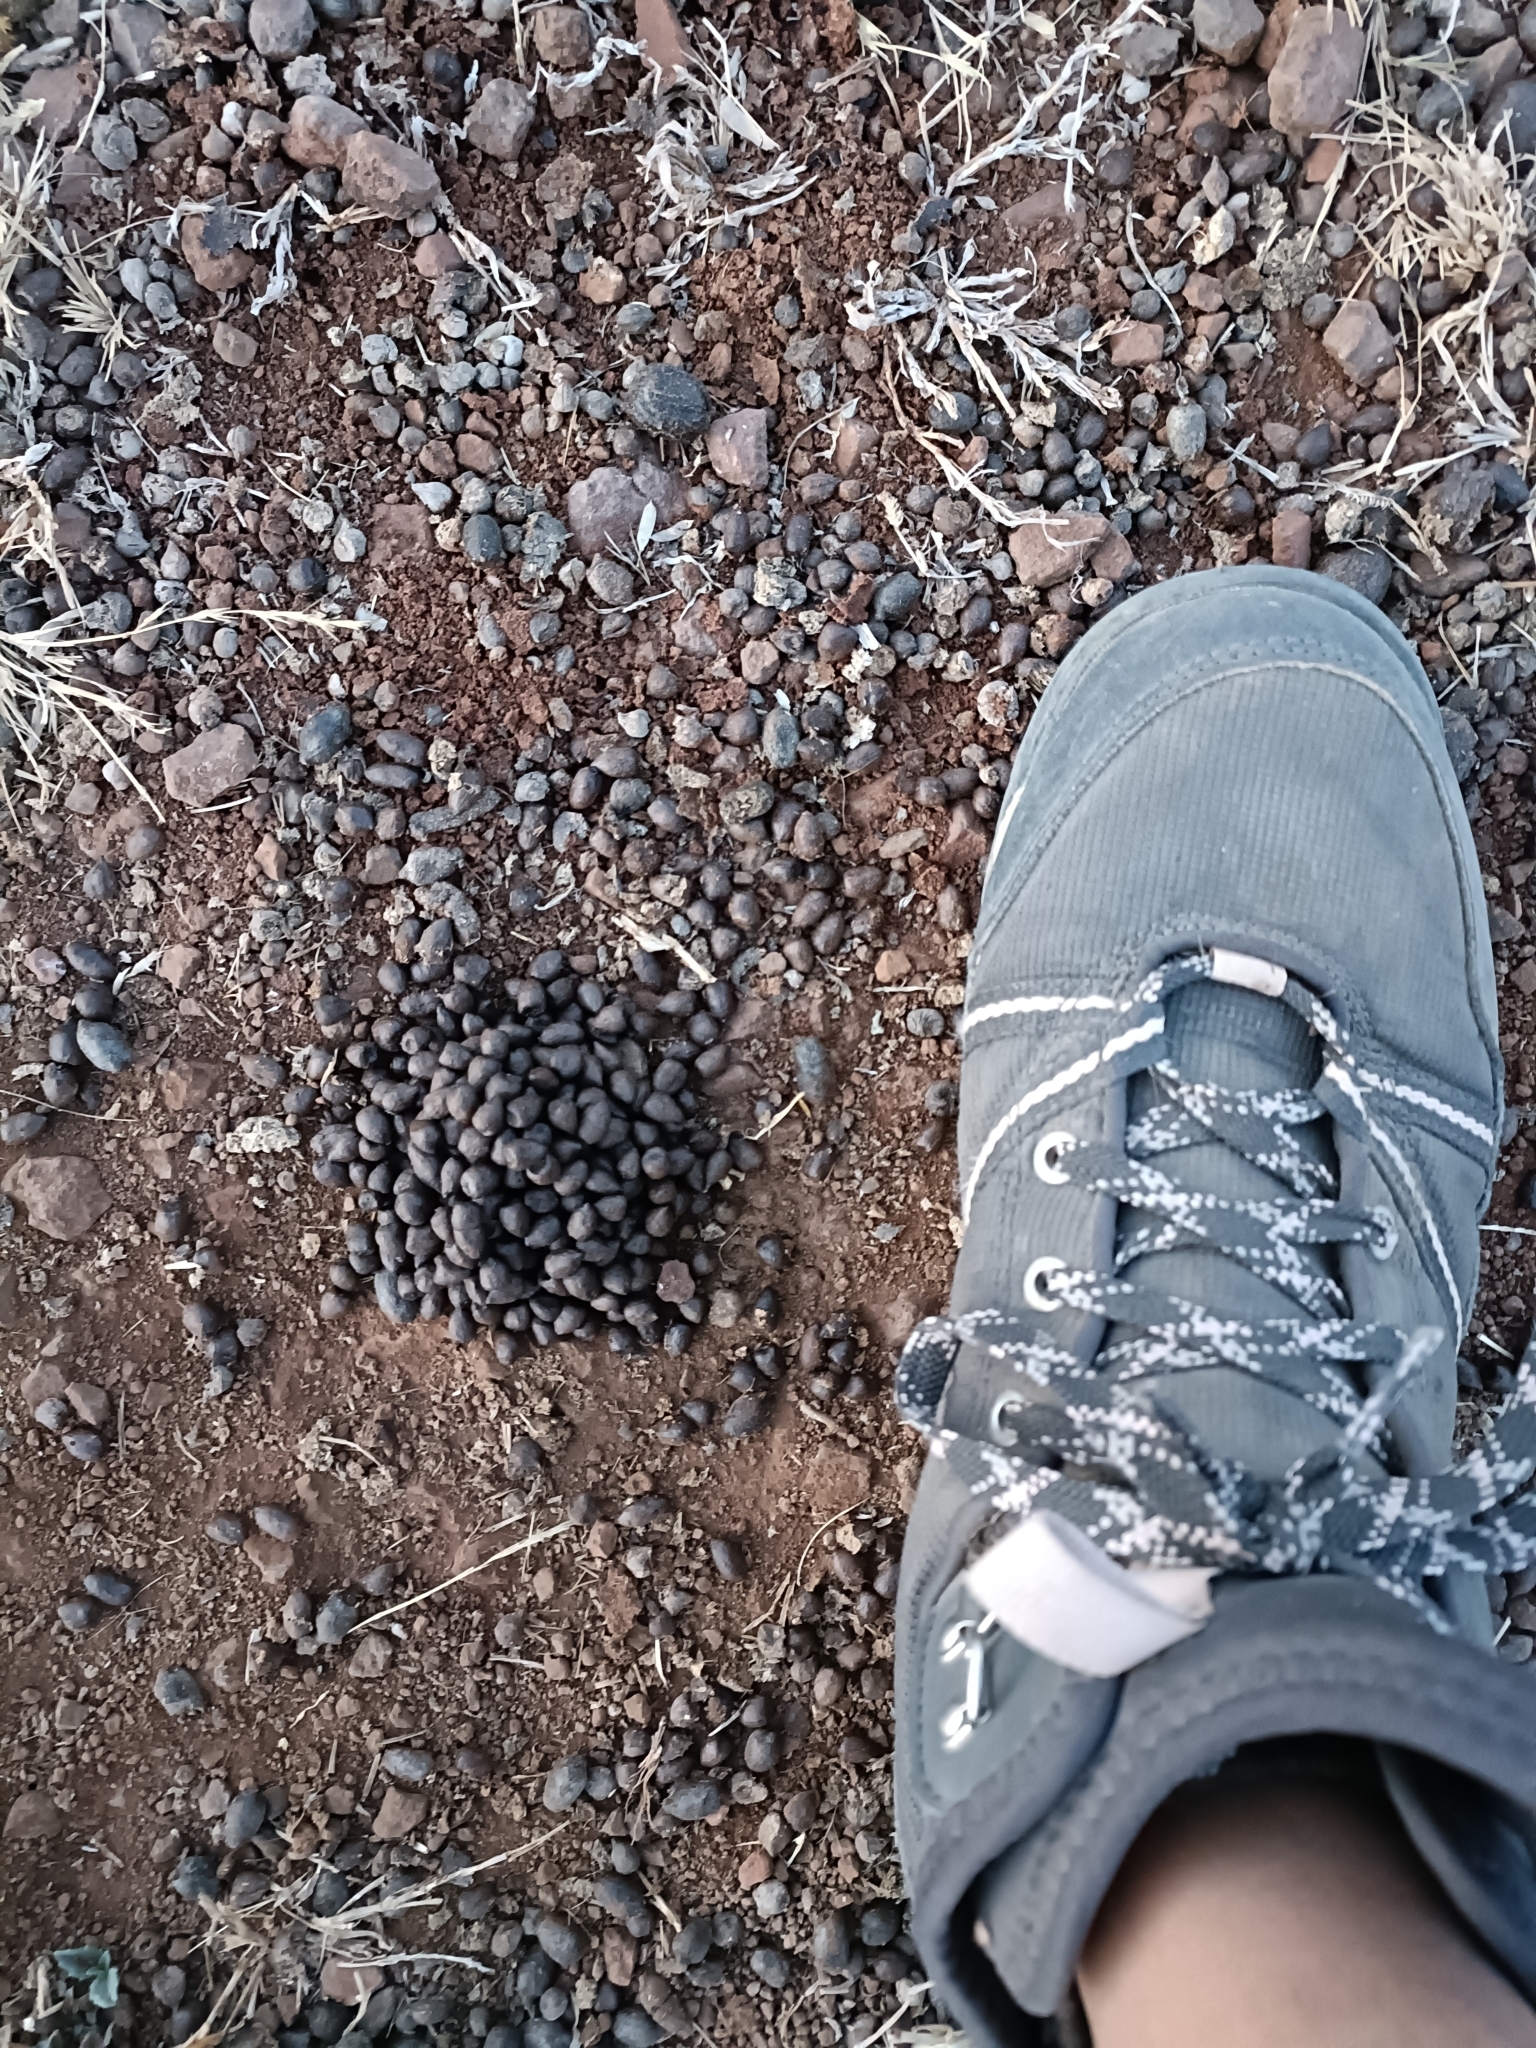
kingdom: Animalia
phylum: Chordata
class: Mammalia
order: Artiodactyla
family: Bovidae
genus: Gazella
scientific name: Gazella bennettii
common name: Indian gazelle
